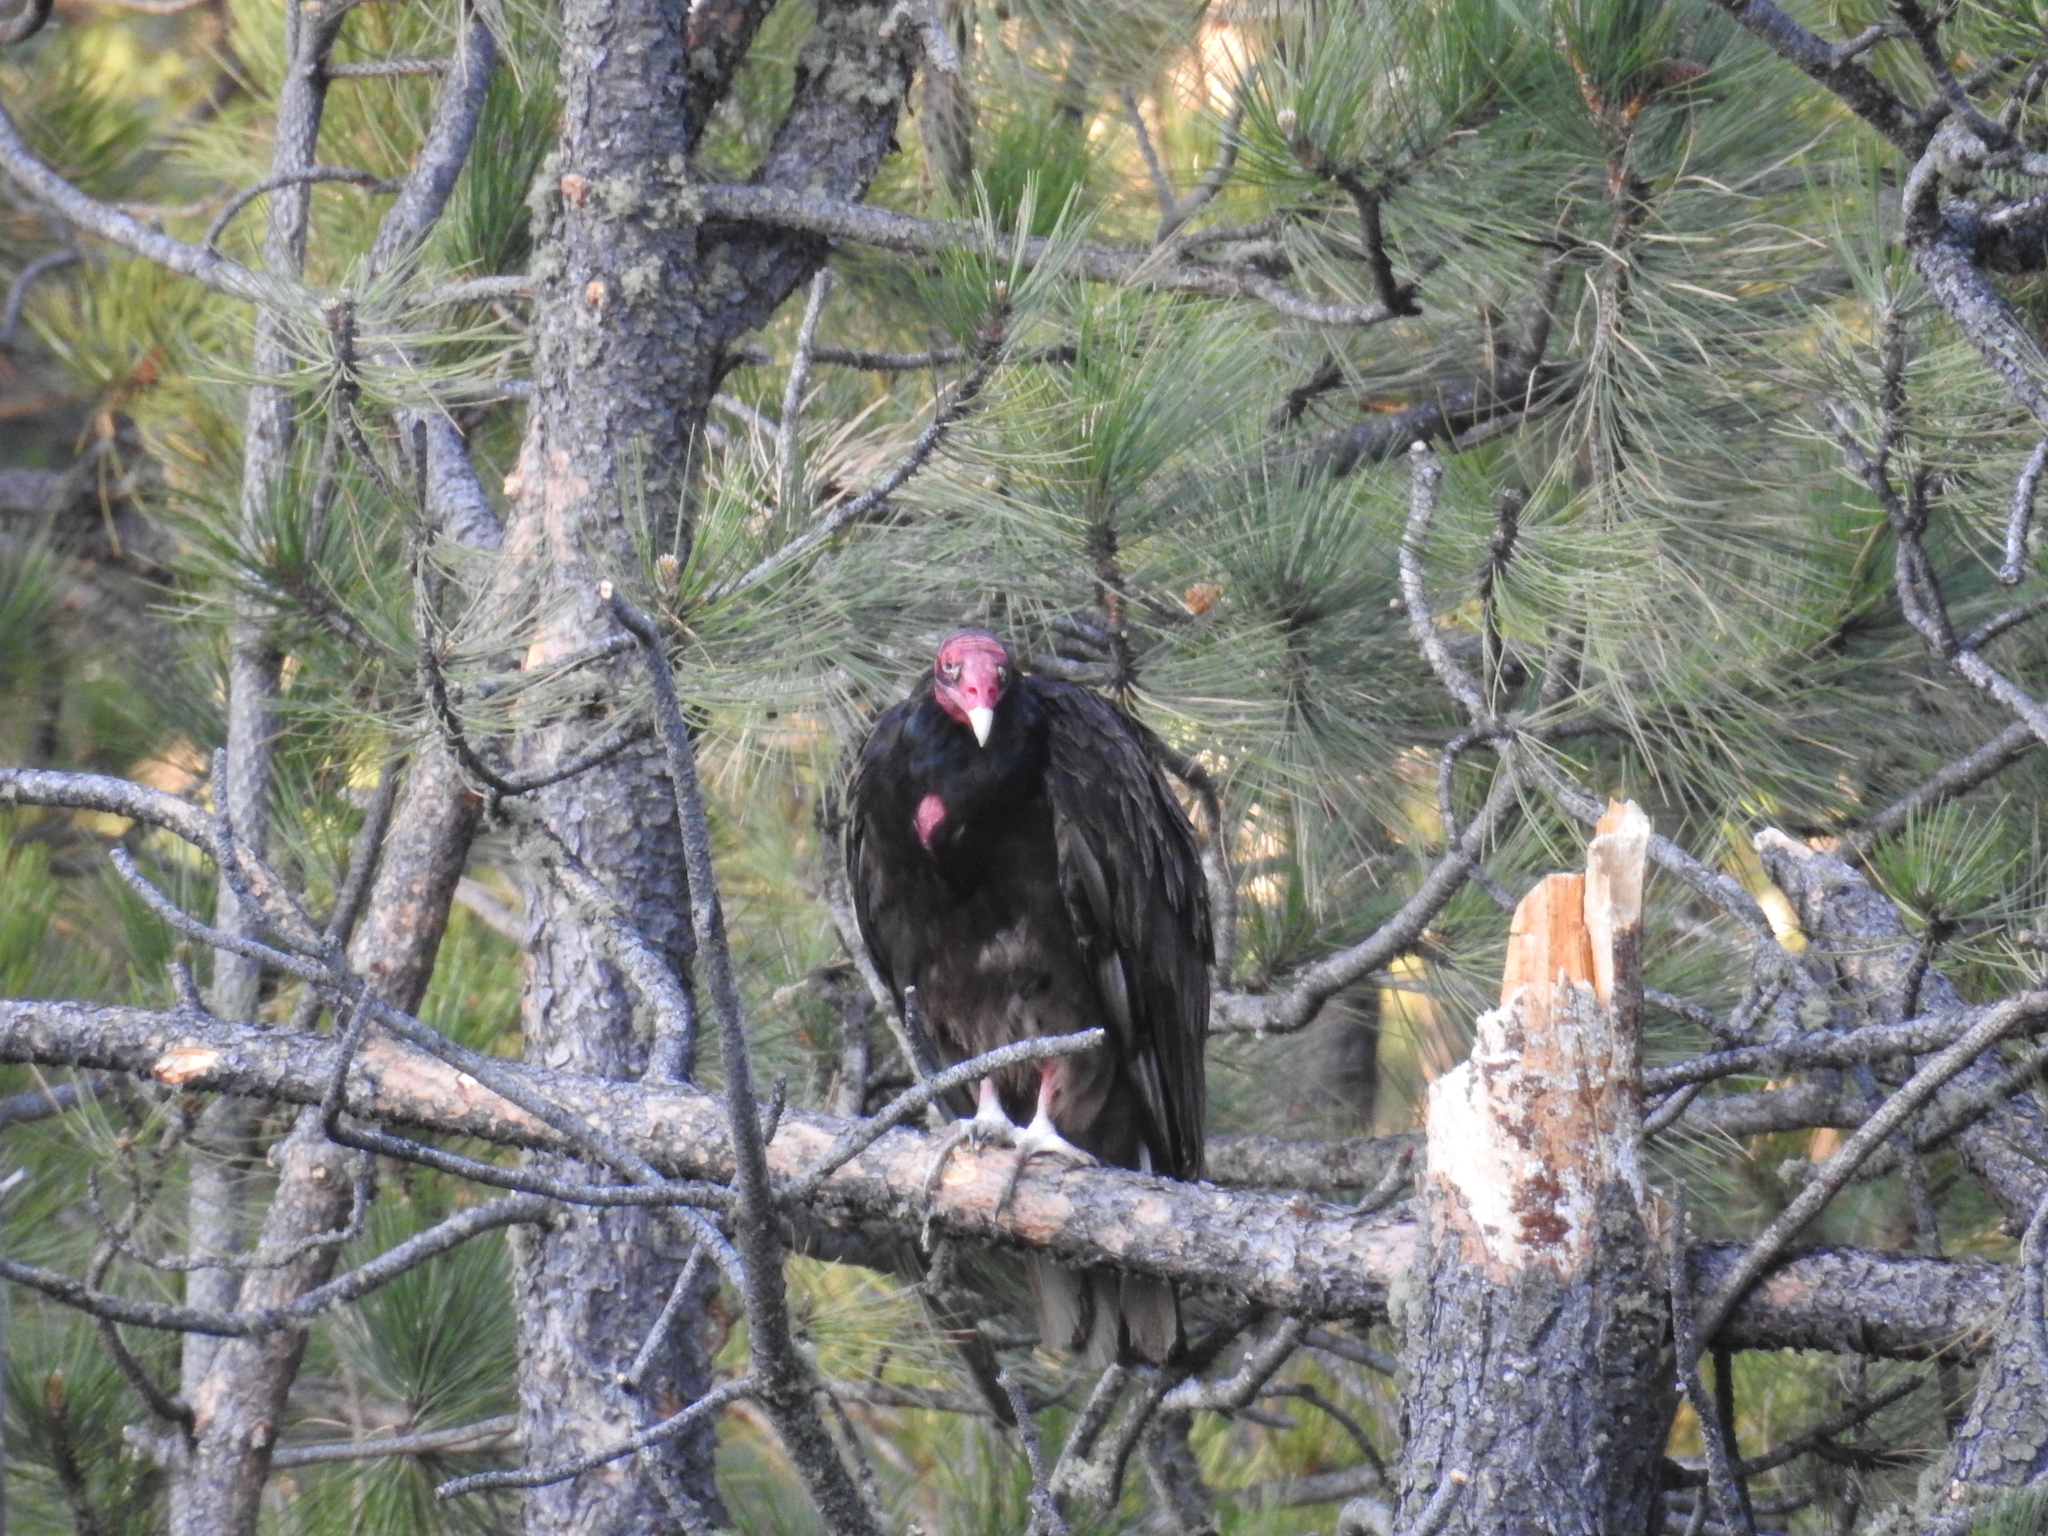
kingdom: Animalia
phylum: Chordata
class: Aves
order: Accipitriformes
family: Cathartidae
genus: Cathartes
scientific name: Cathartes aura
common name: Turkey vulture
